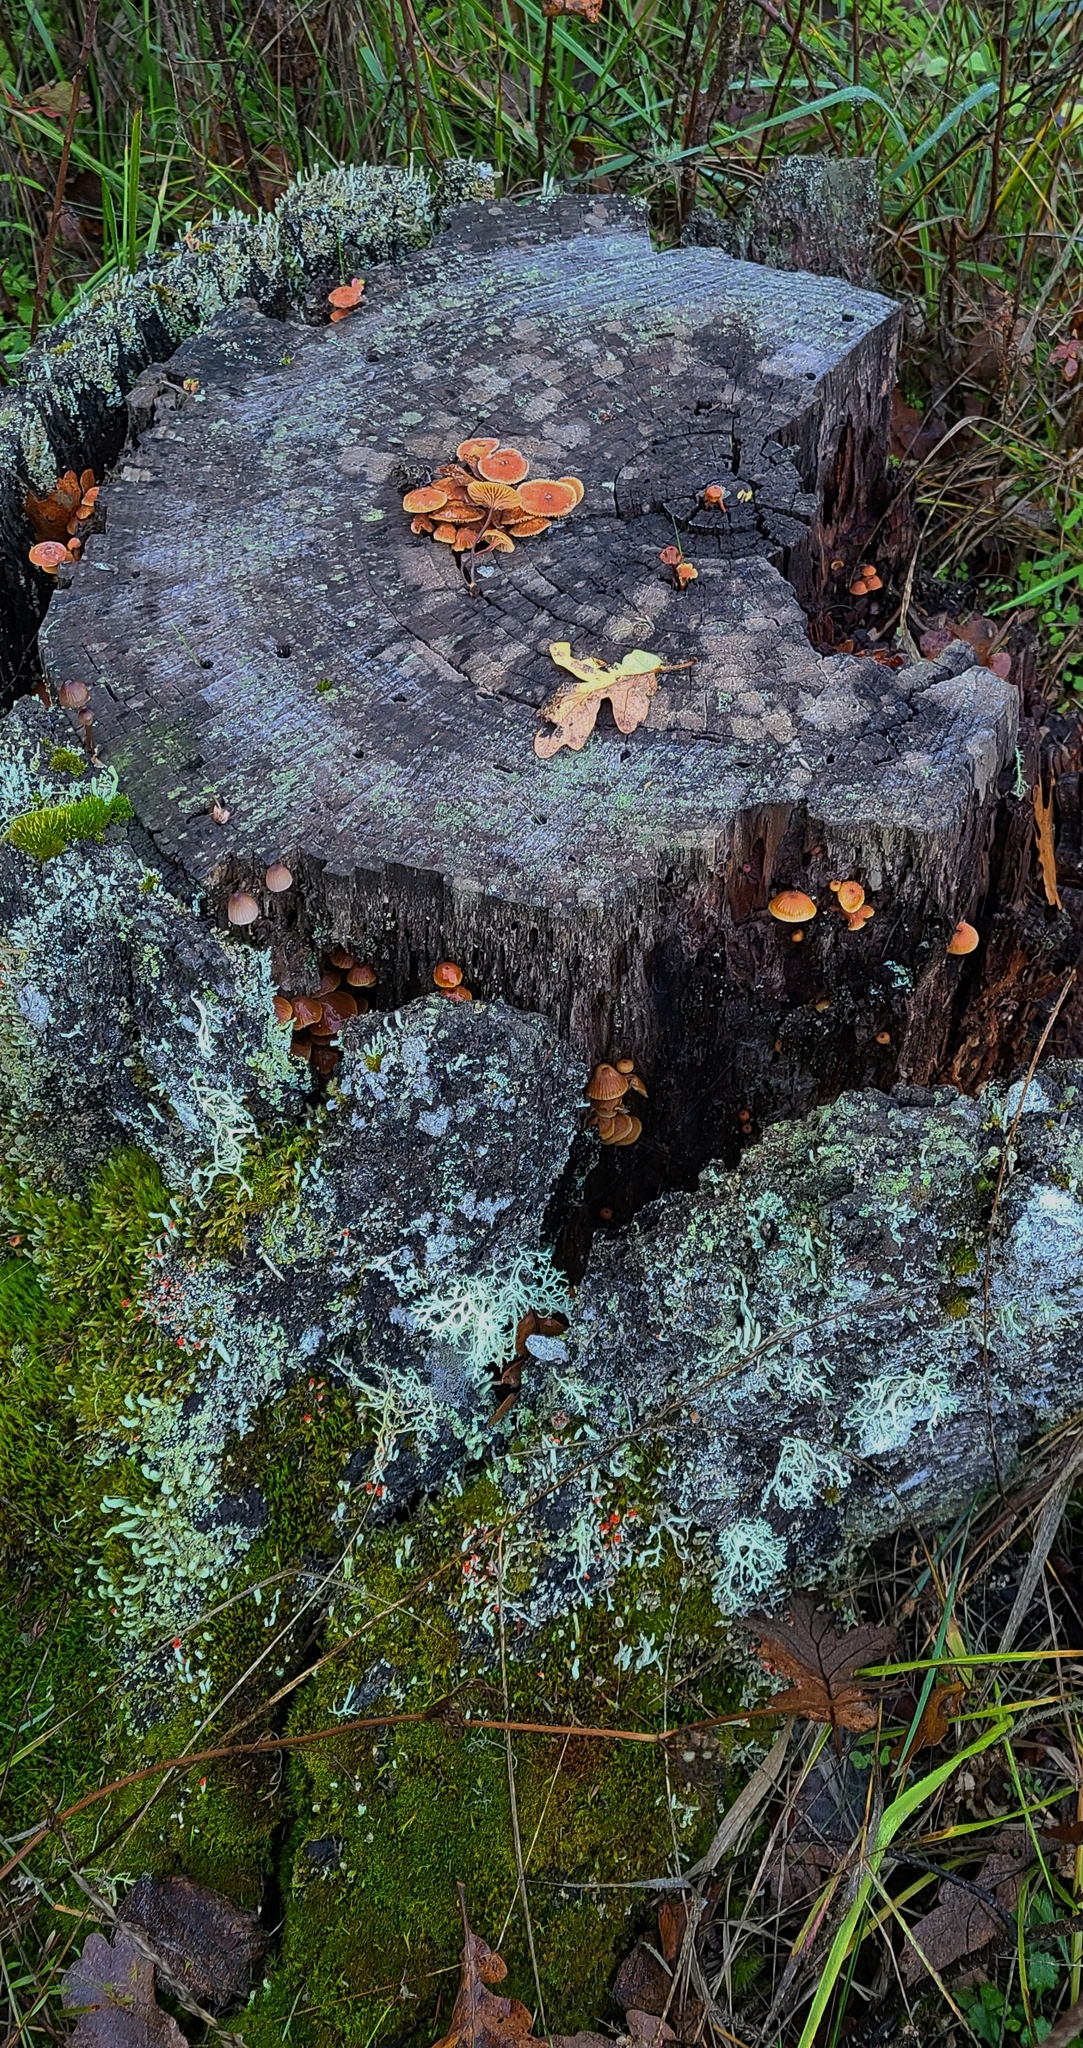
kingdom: Fungi
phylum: Basidiomycota
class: Agaricomycetes
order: Agaricales
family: Mycenaceae
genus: Xeromphalina
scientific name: Xeromphalina campanella
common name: Pinewood gingertail
